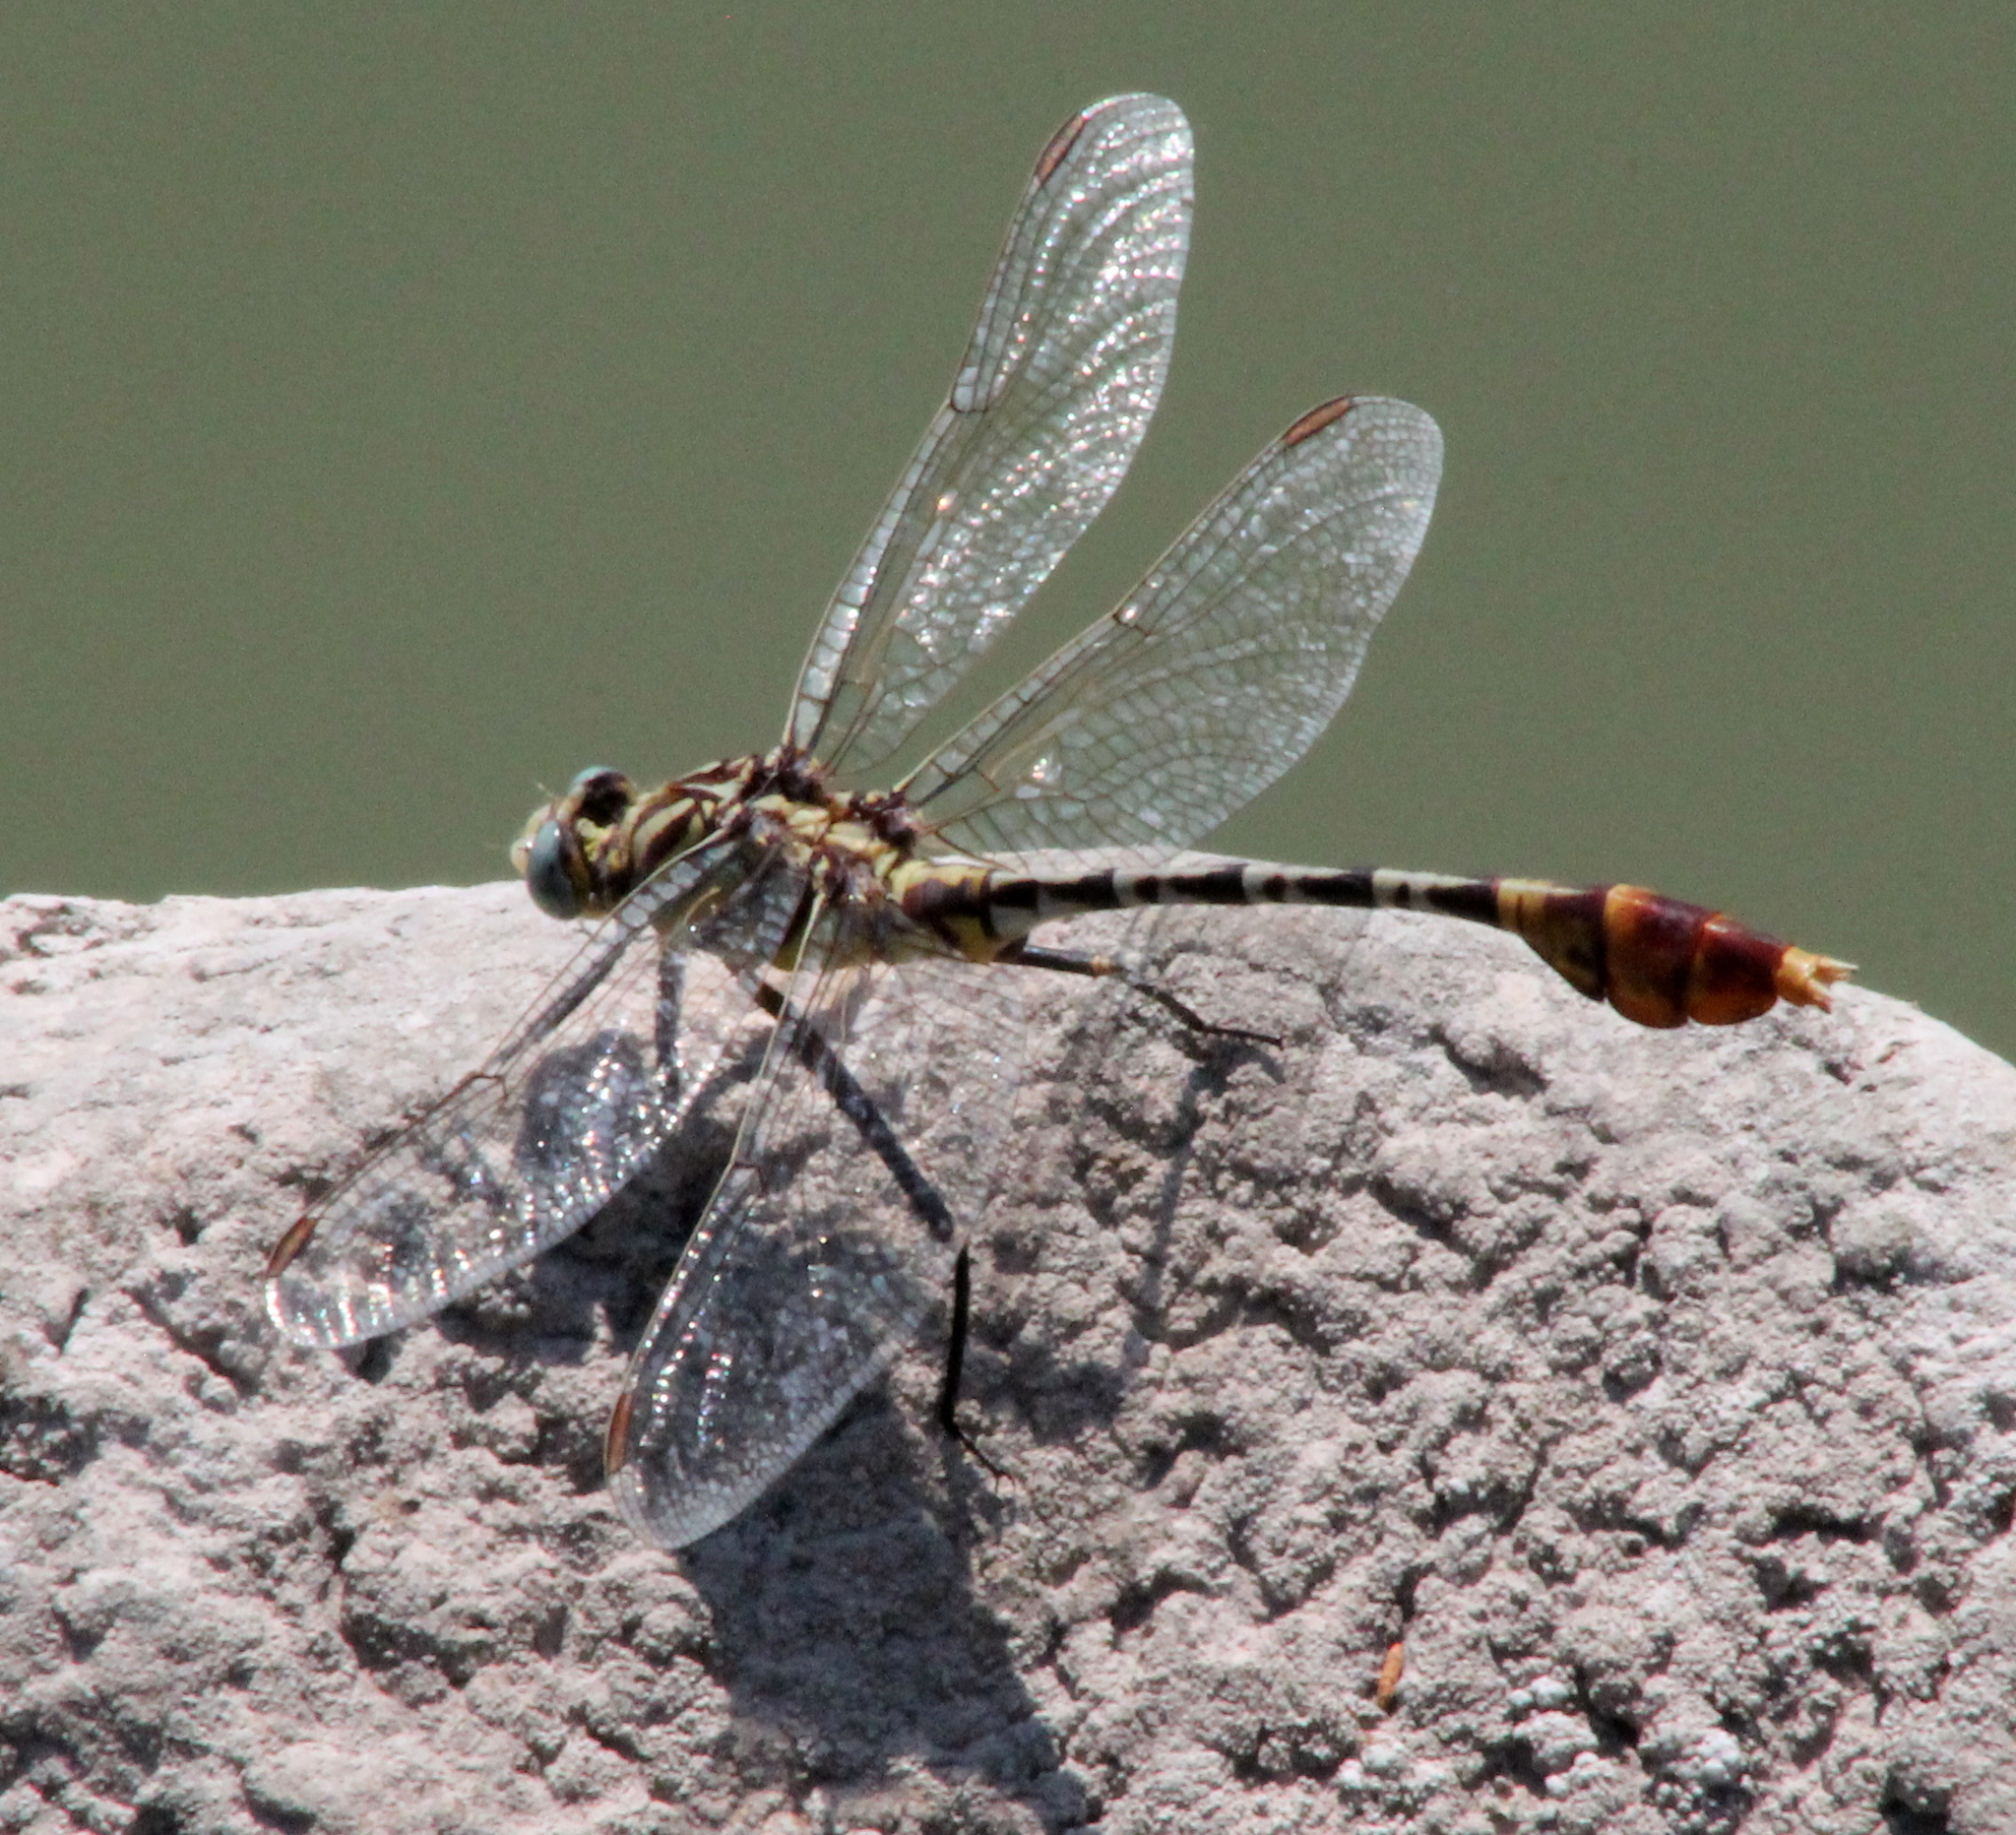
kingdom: Animalia
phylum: Arthropoda
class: Insecta
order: Odonata
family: Gomphidae
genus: Dromogomphus
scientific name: Dromogomphus spoliatus
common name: Flag-tailed spinyleg
